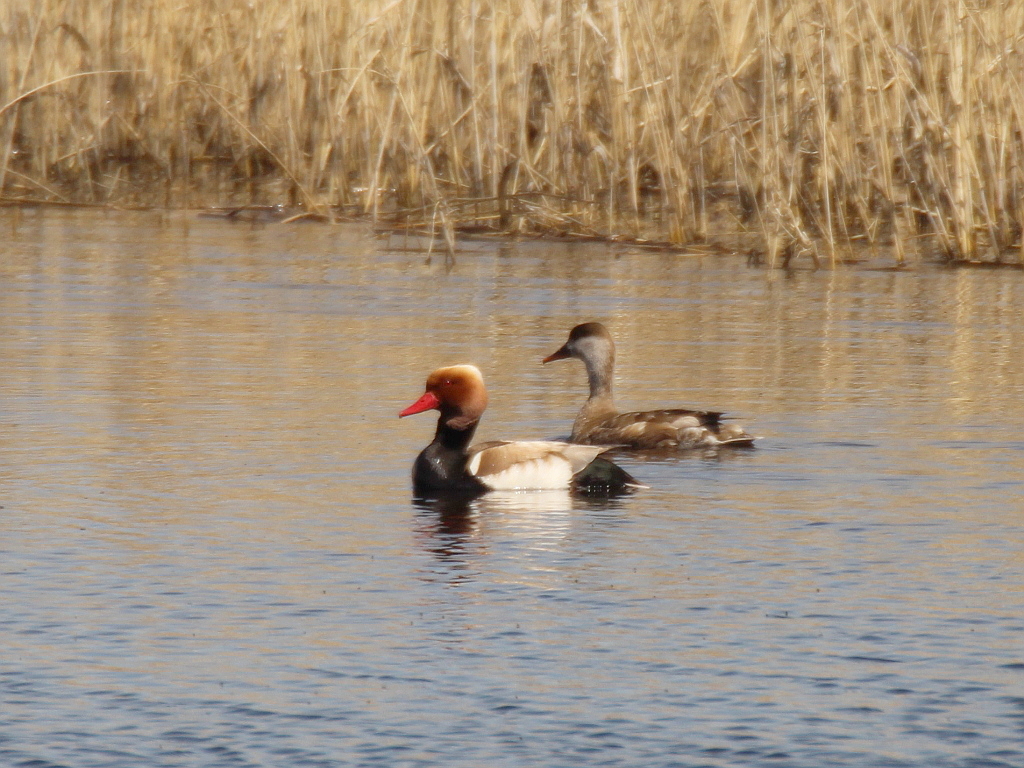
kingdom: Animalia
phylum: Chordata
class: Aves
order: Anseriformes
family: Anatidae
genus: Netta
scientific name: Netta rufina
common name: Red-crested pochard
